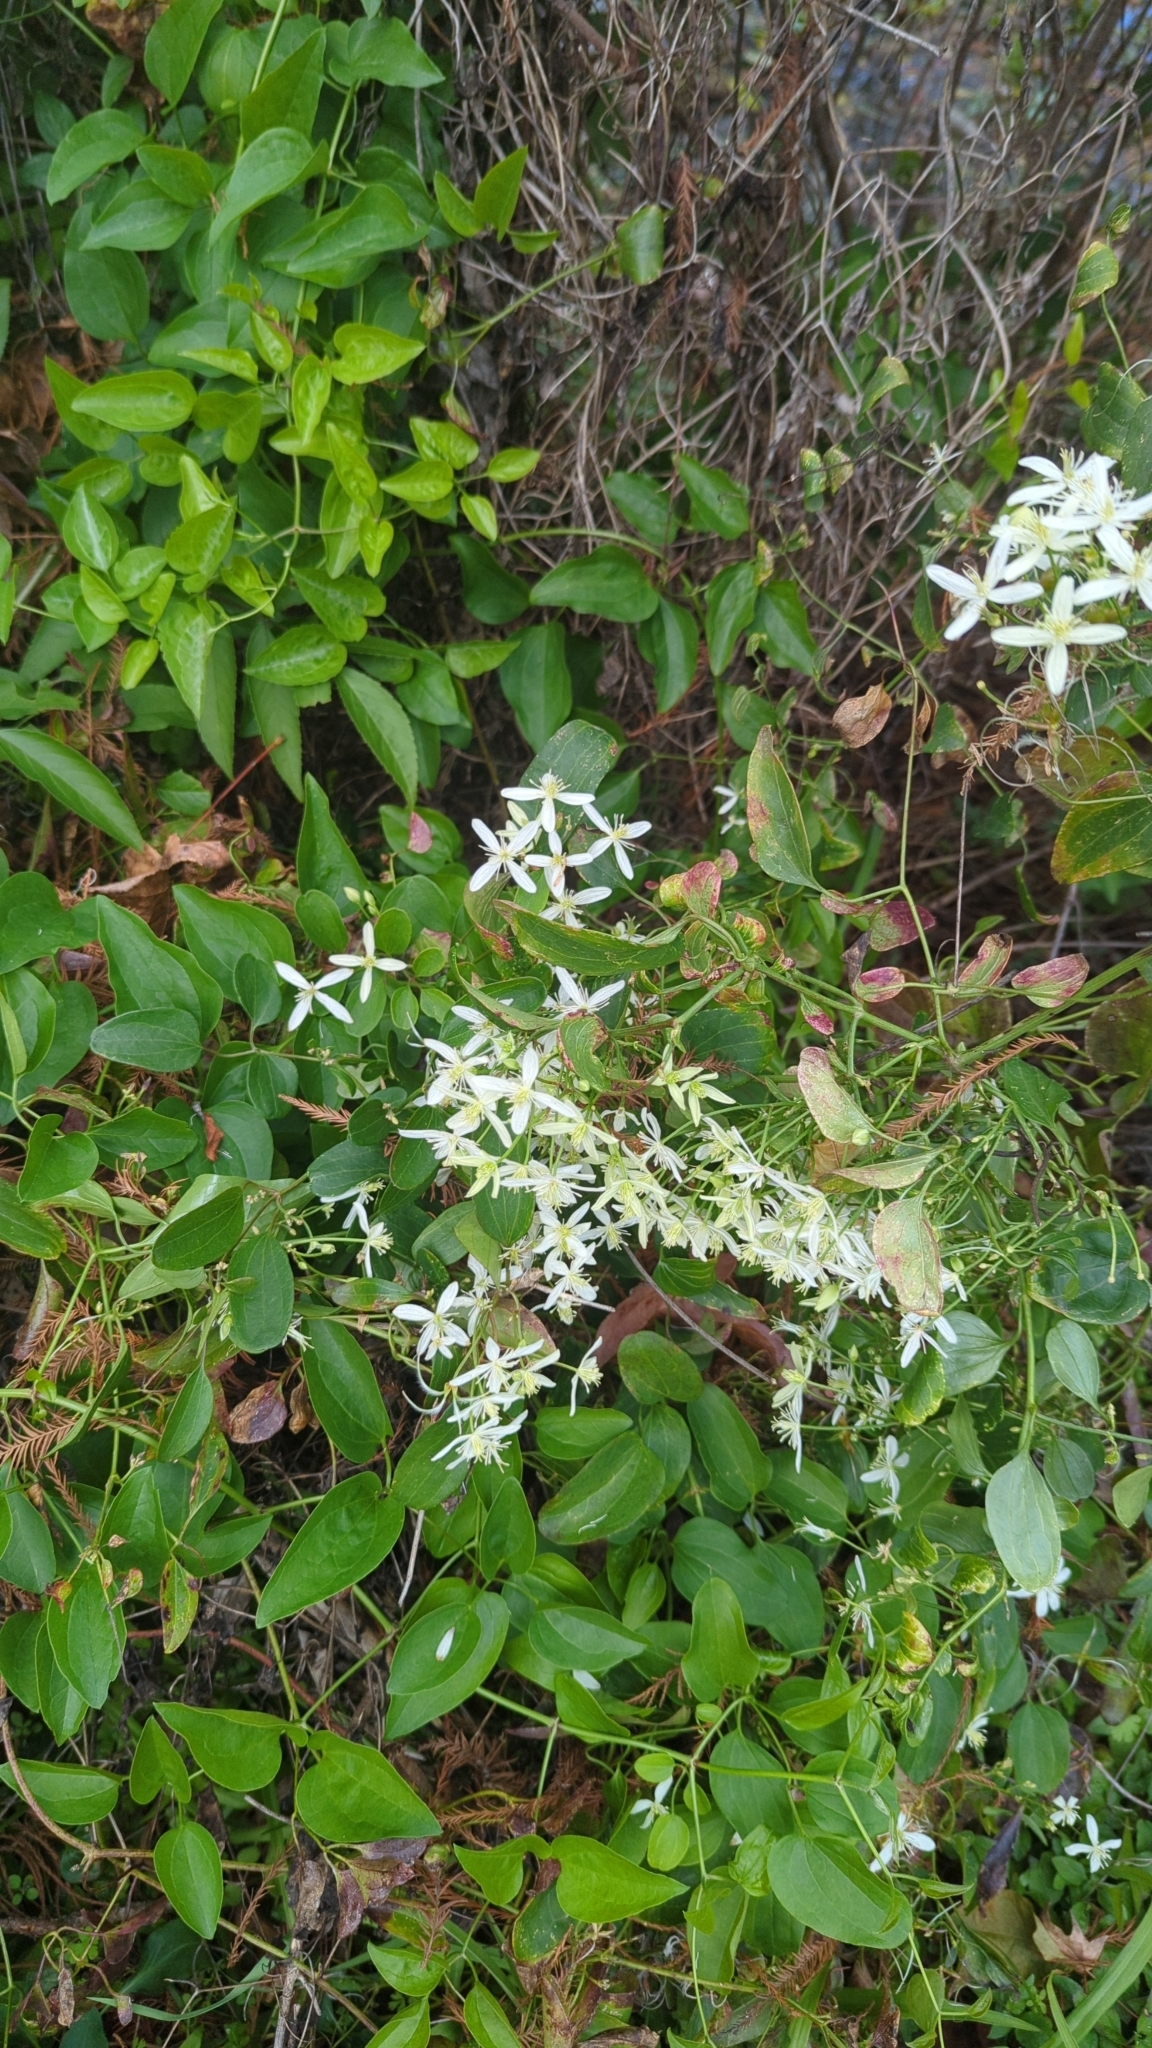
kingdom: Plantae
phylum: Tracheophyta
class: Magnoliopsida
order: Ranunculales
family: Ranunculaceae
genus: Clematis
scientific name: Clematis terniflora
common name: Sweet autumn clematis
